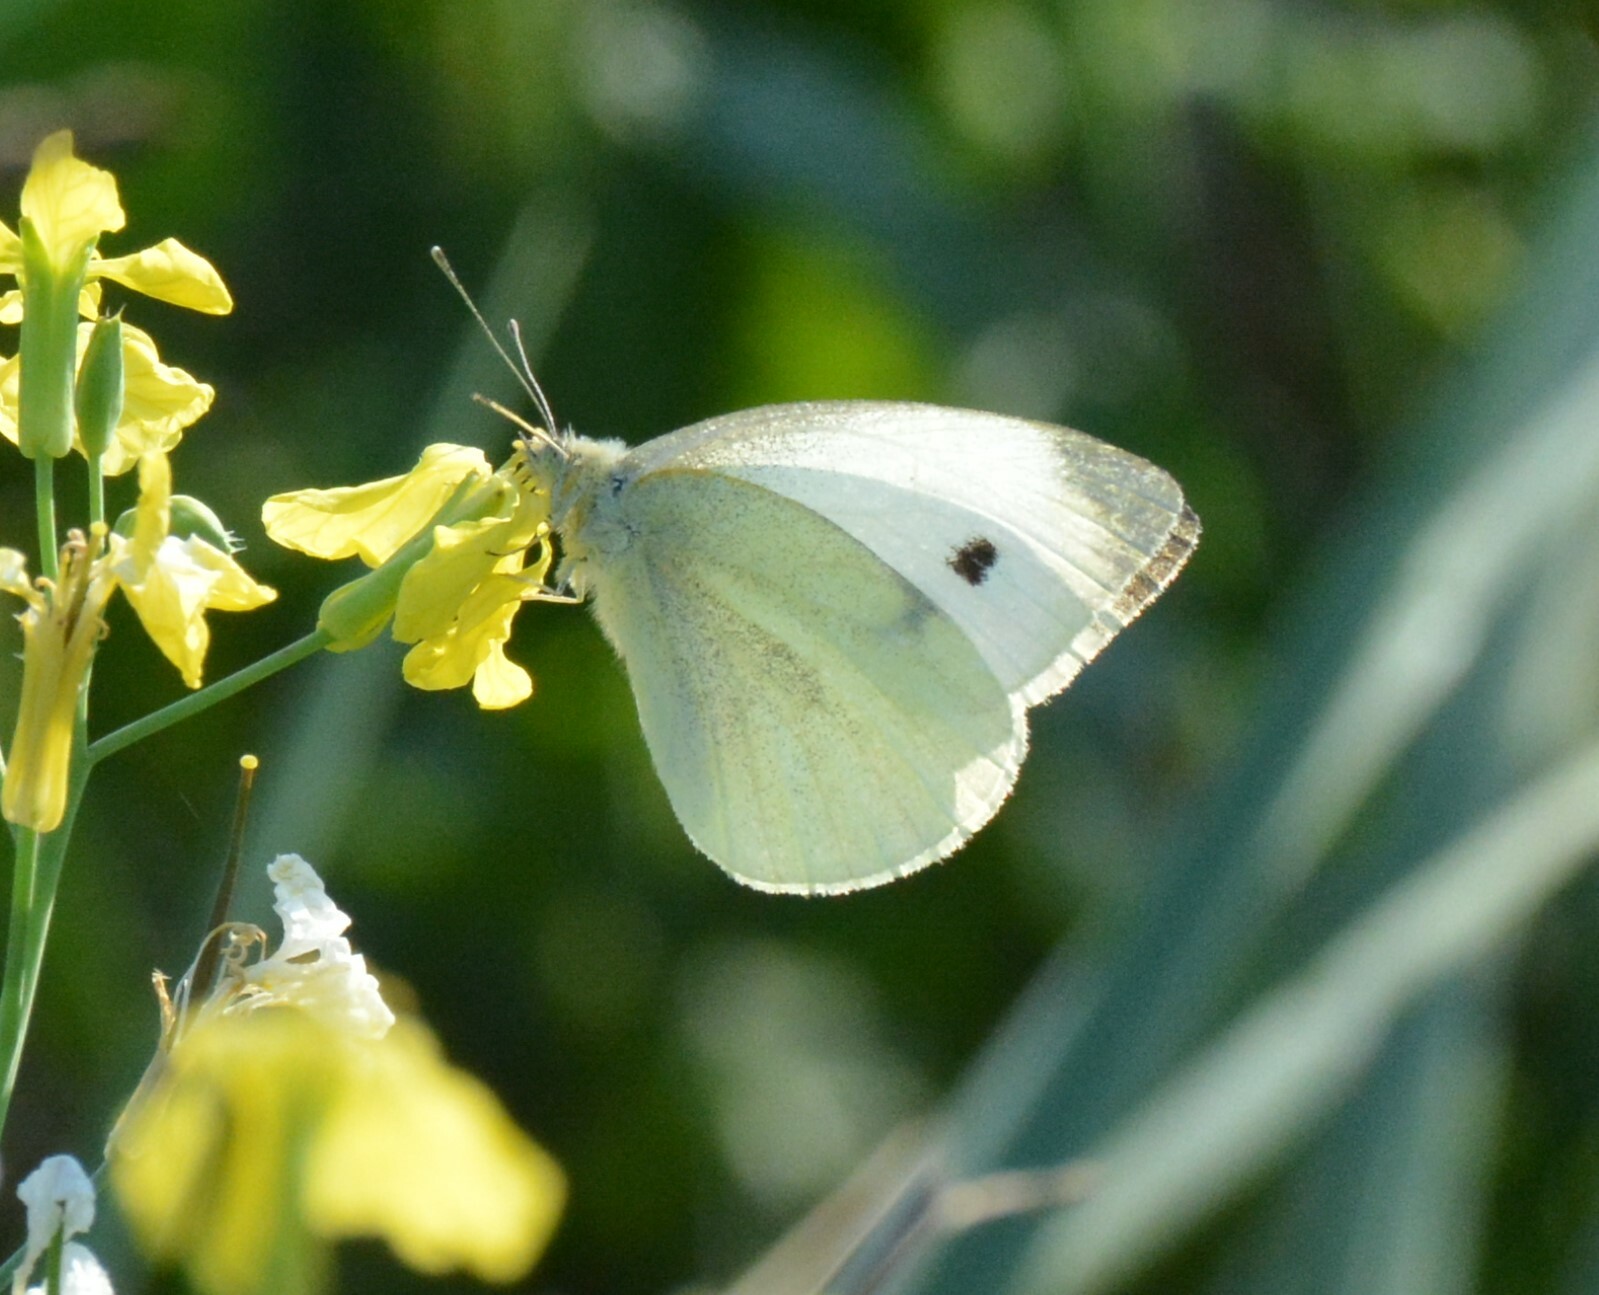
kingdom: Animalia
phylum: Arthropoda
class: Insecta
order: Lepidoptera
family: Pieridae
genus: Pieris
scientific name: Pieris rapae
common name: Small white
